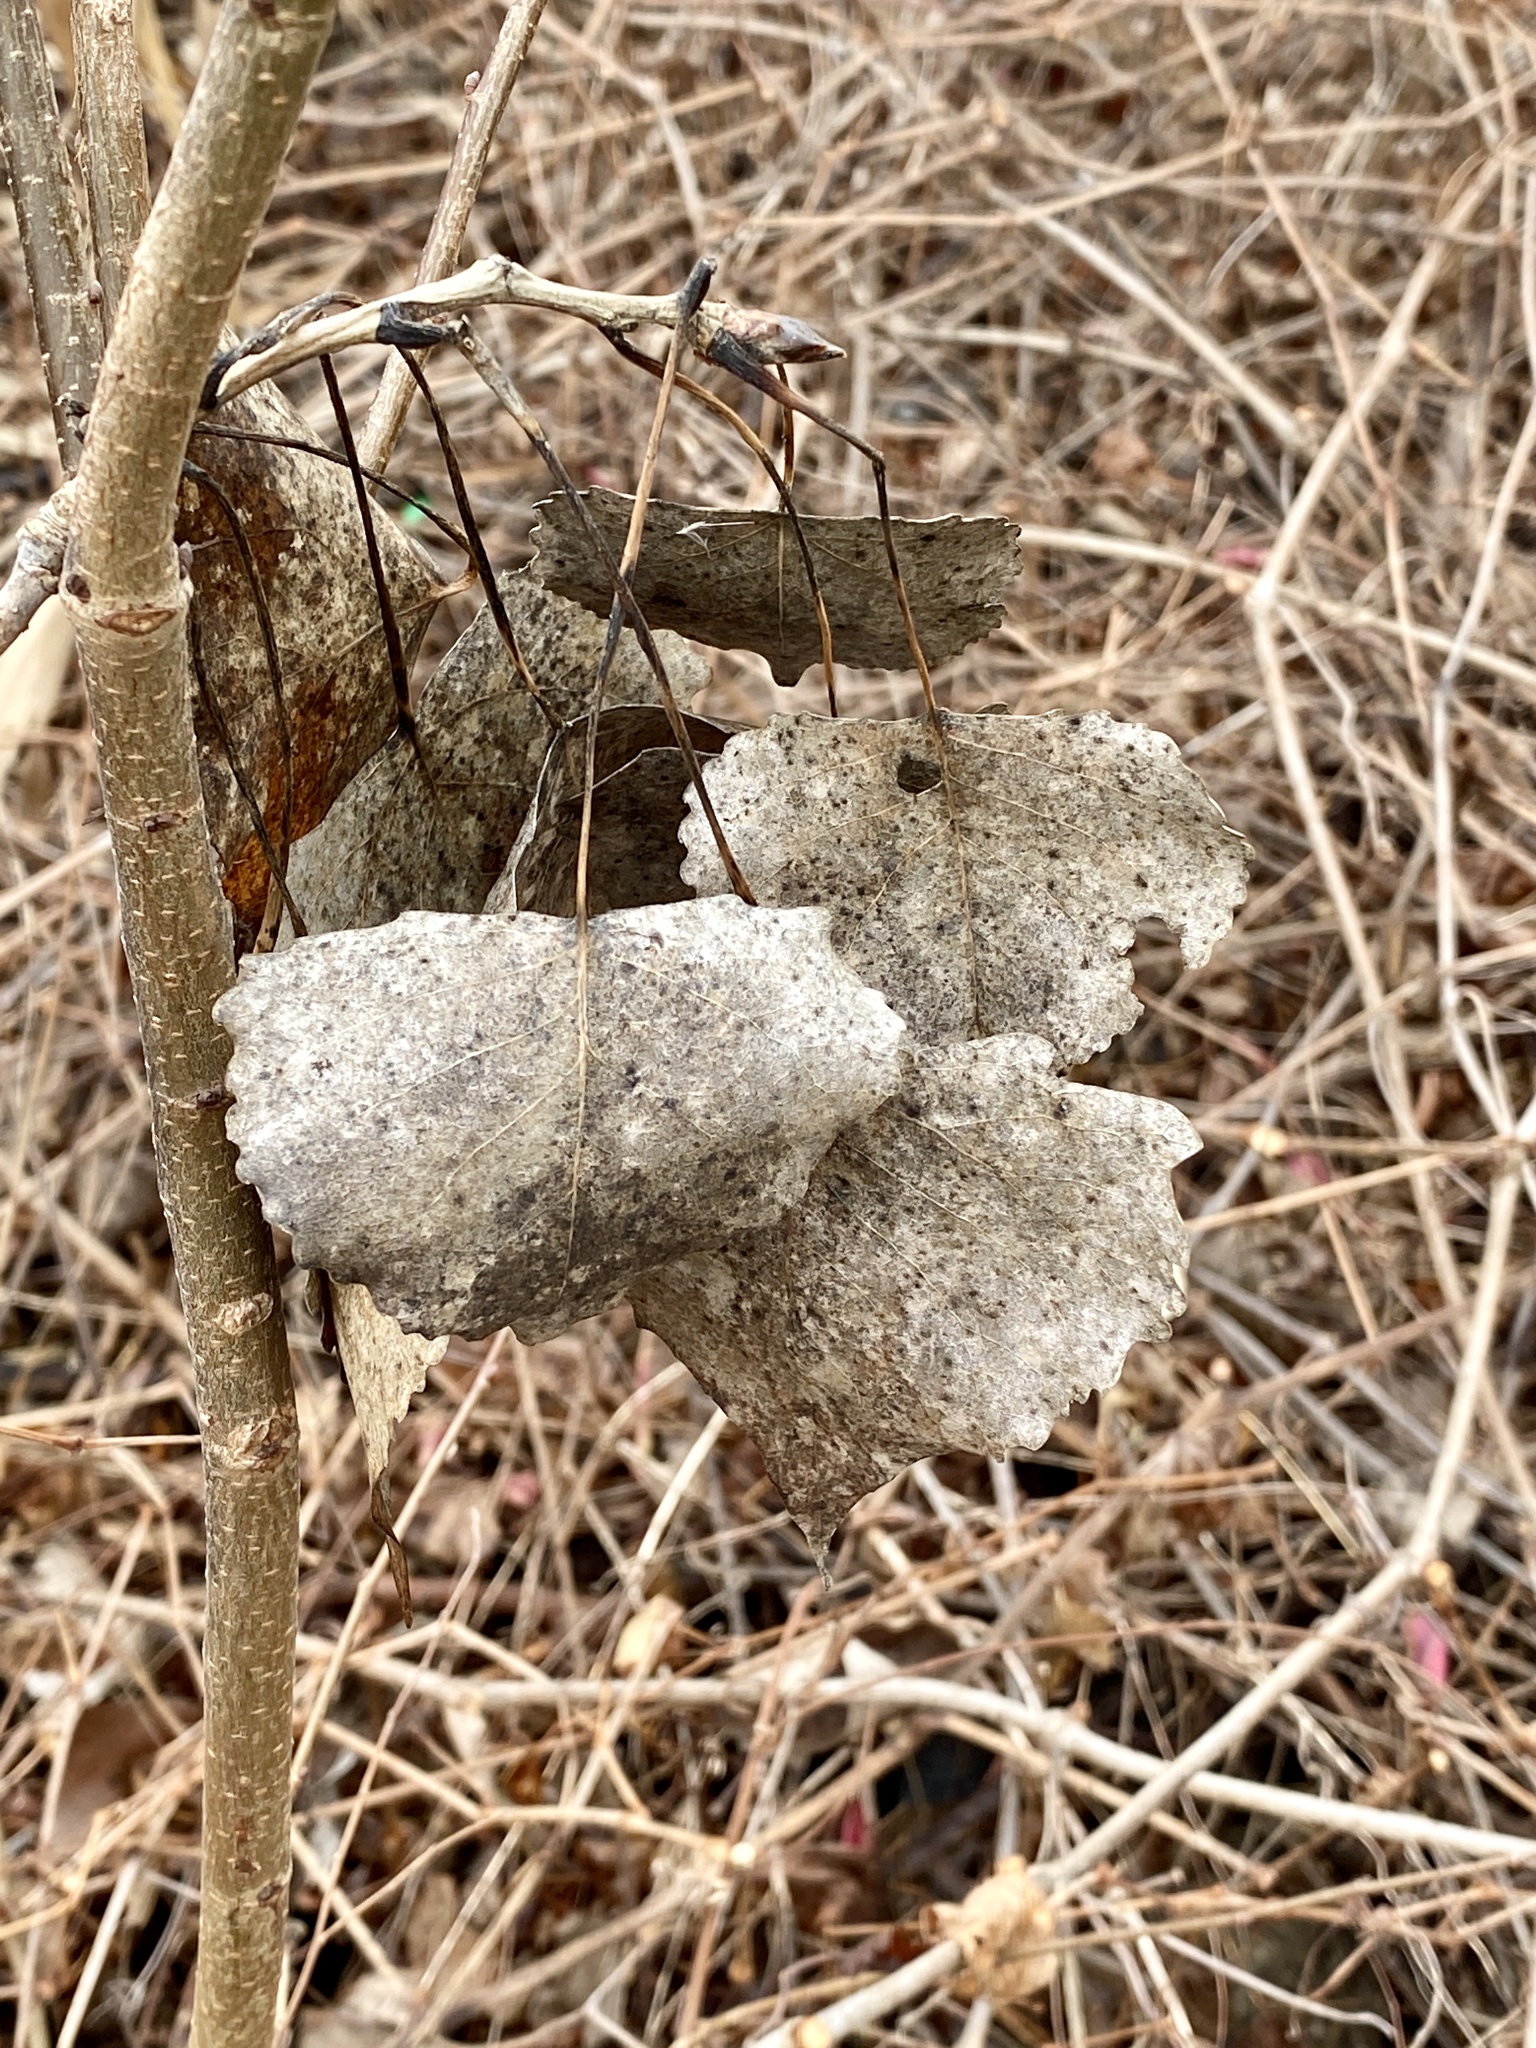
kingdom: Plantae
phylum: Tracheophyta
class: Magnoliopsida
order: Malpighiales
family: Salicaceae
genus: Populus
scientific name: Populus deltoides
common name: Eastern cottonwood
